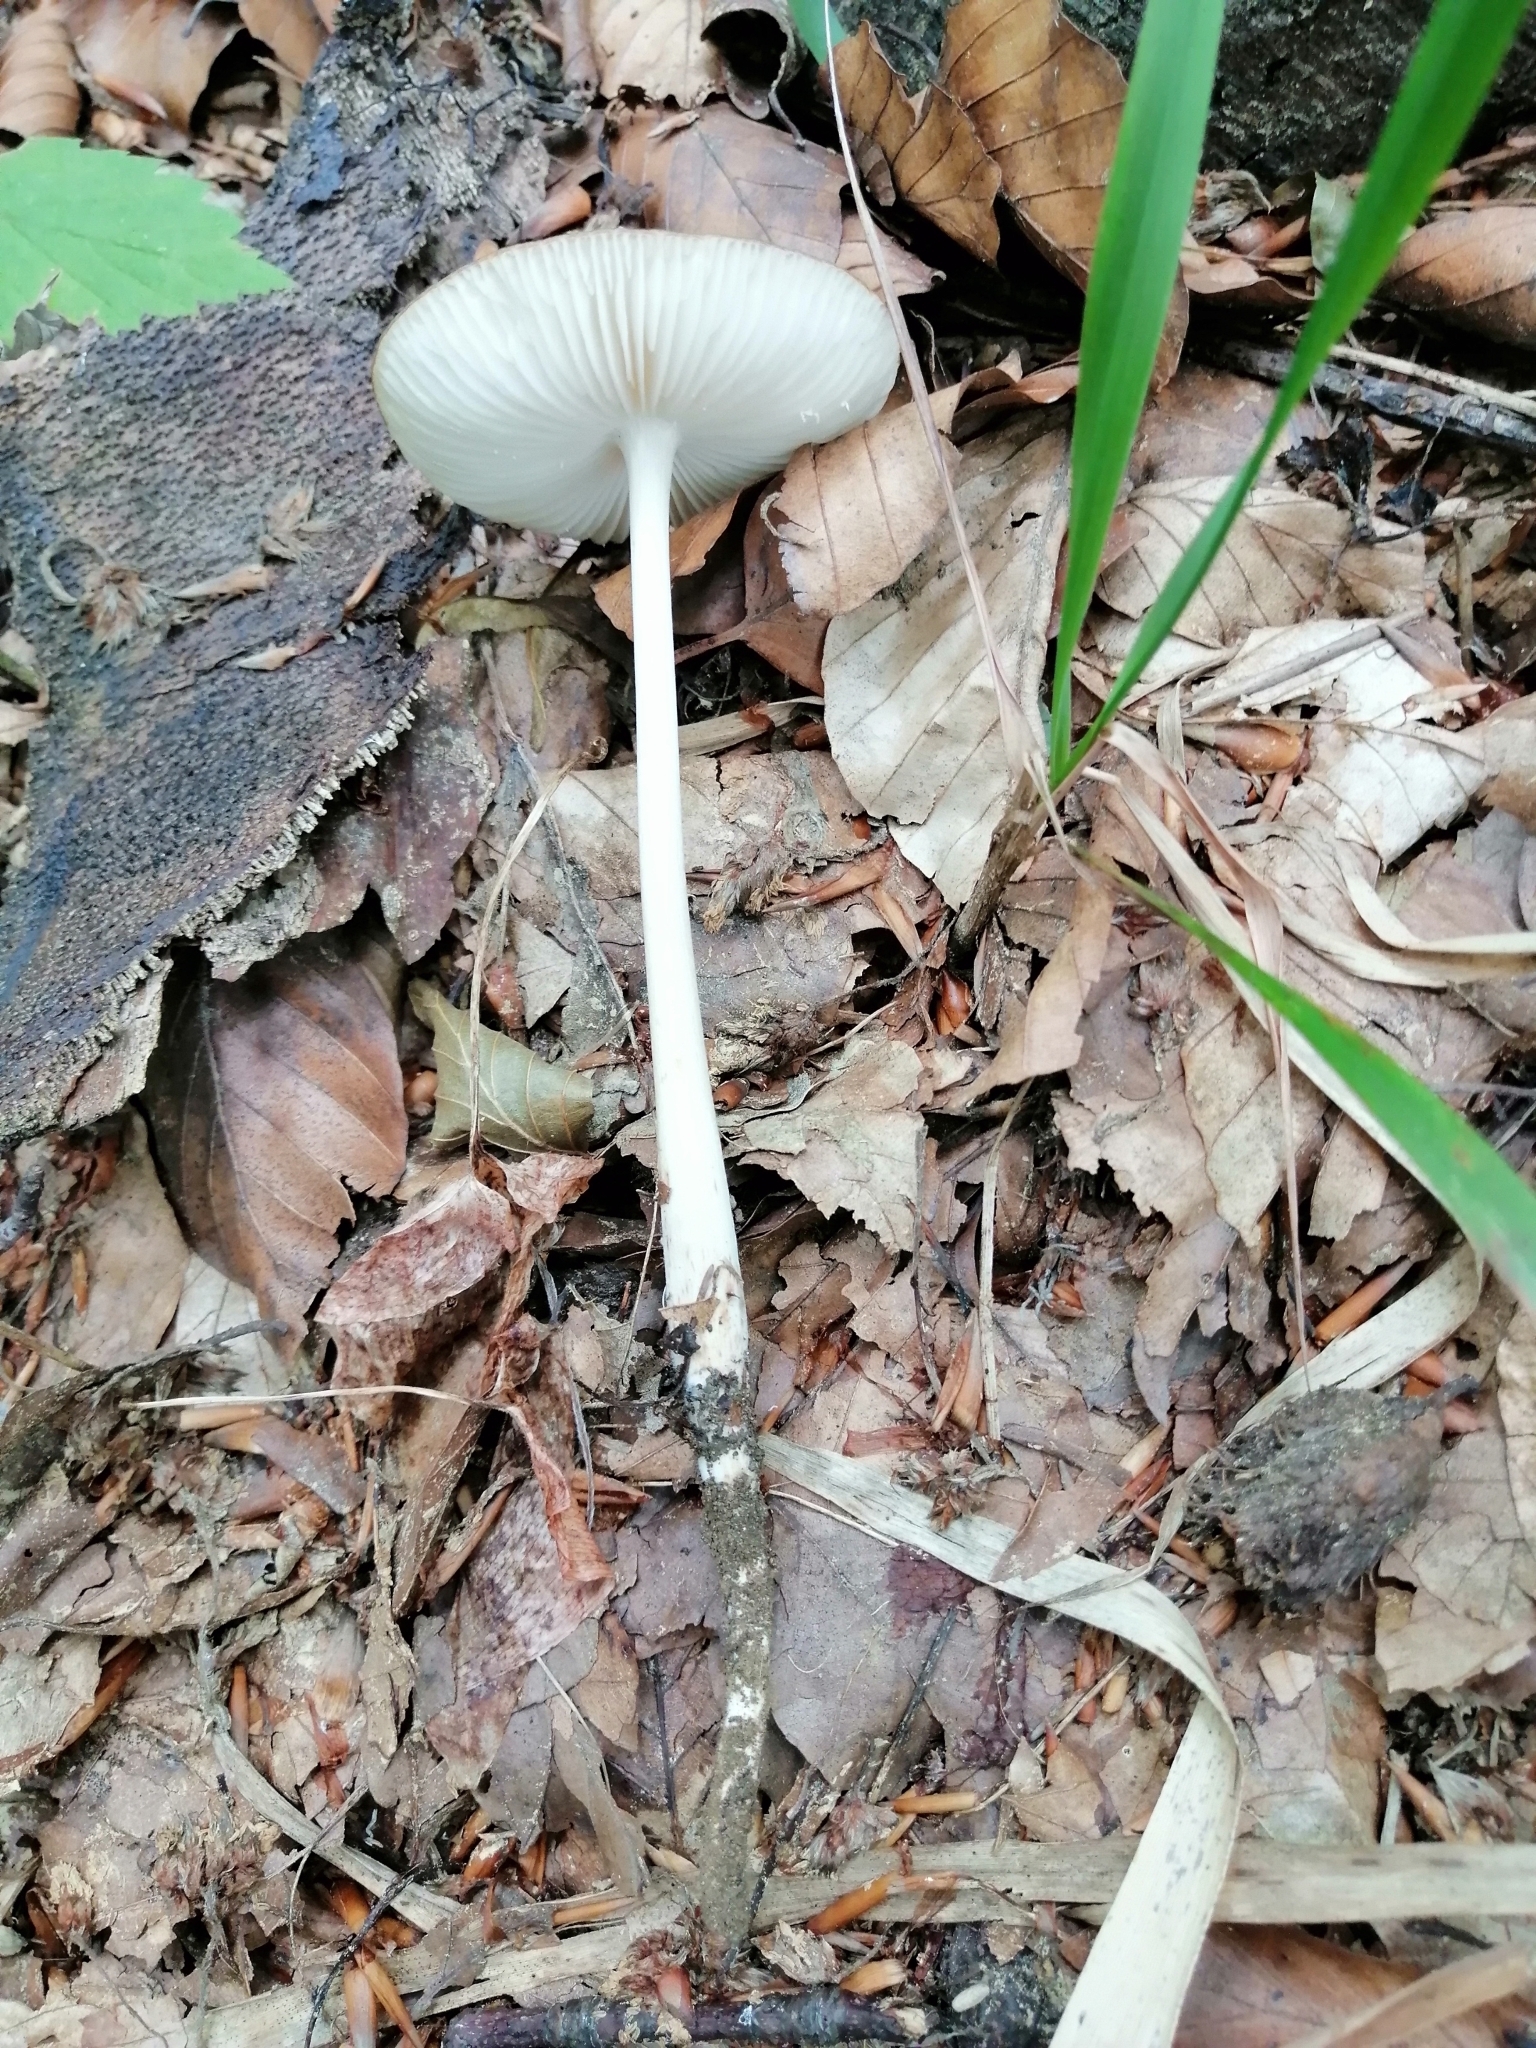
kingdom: Fungi
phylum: Basidiomycota
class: Agaricomycetes
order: Agaricales
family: Physalacriaceae
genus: Hymenopellis
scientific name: Hymenopellis radicata
